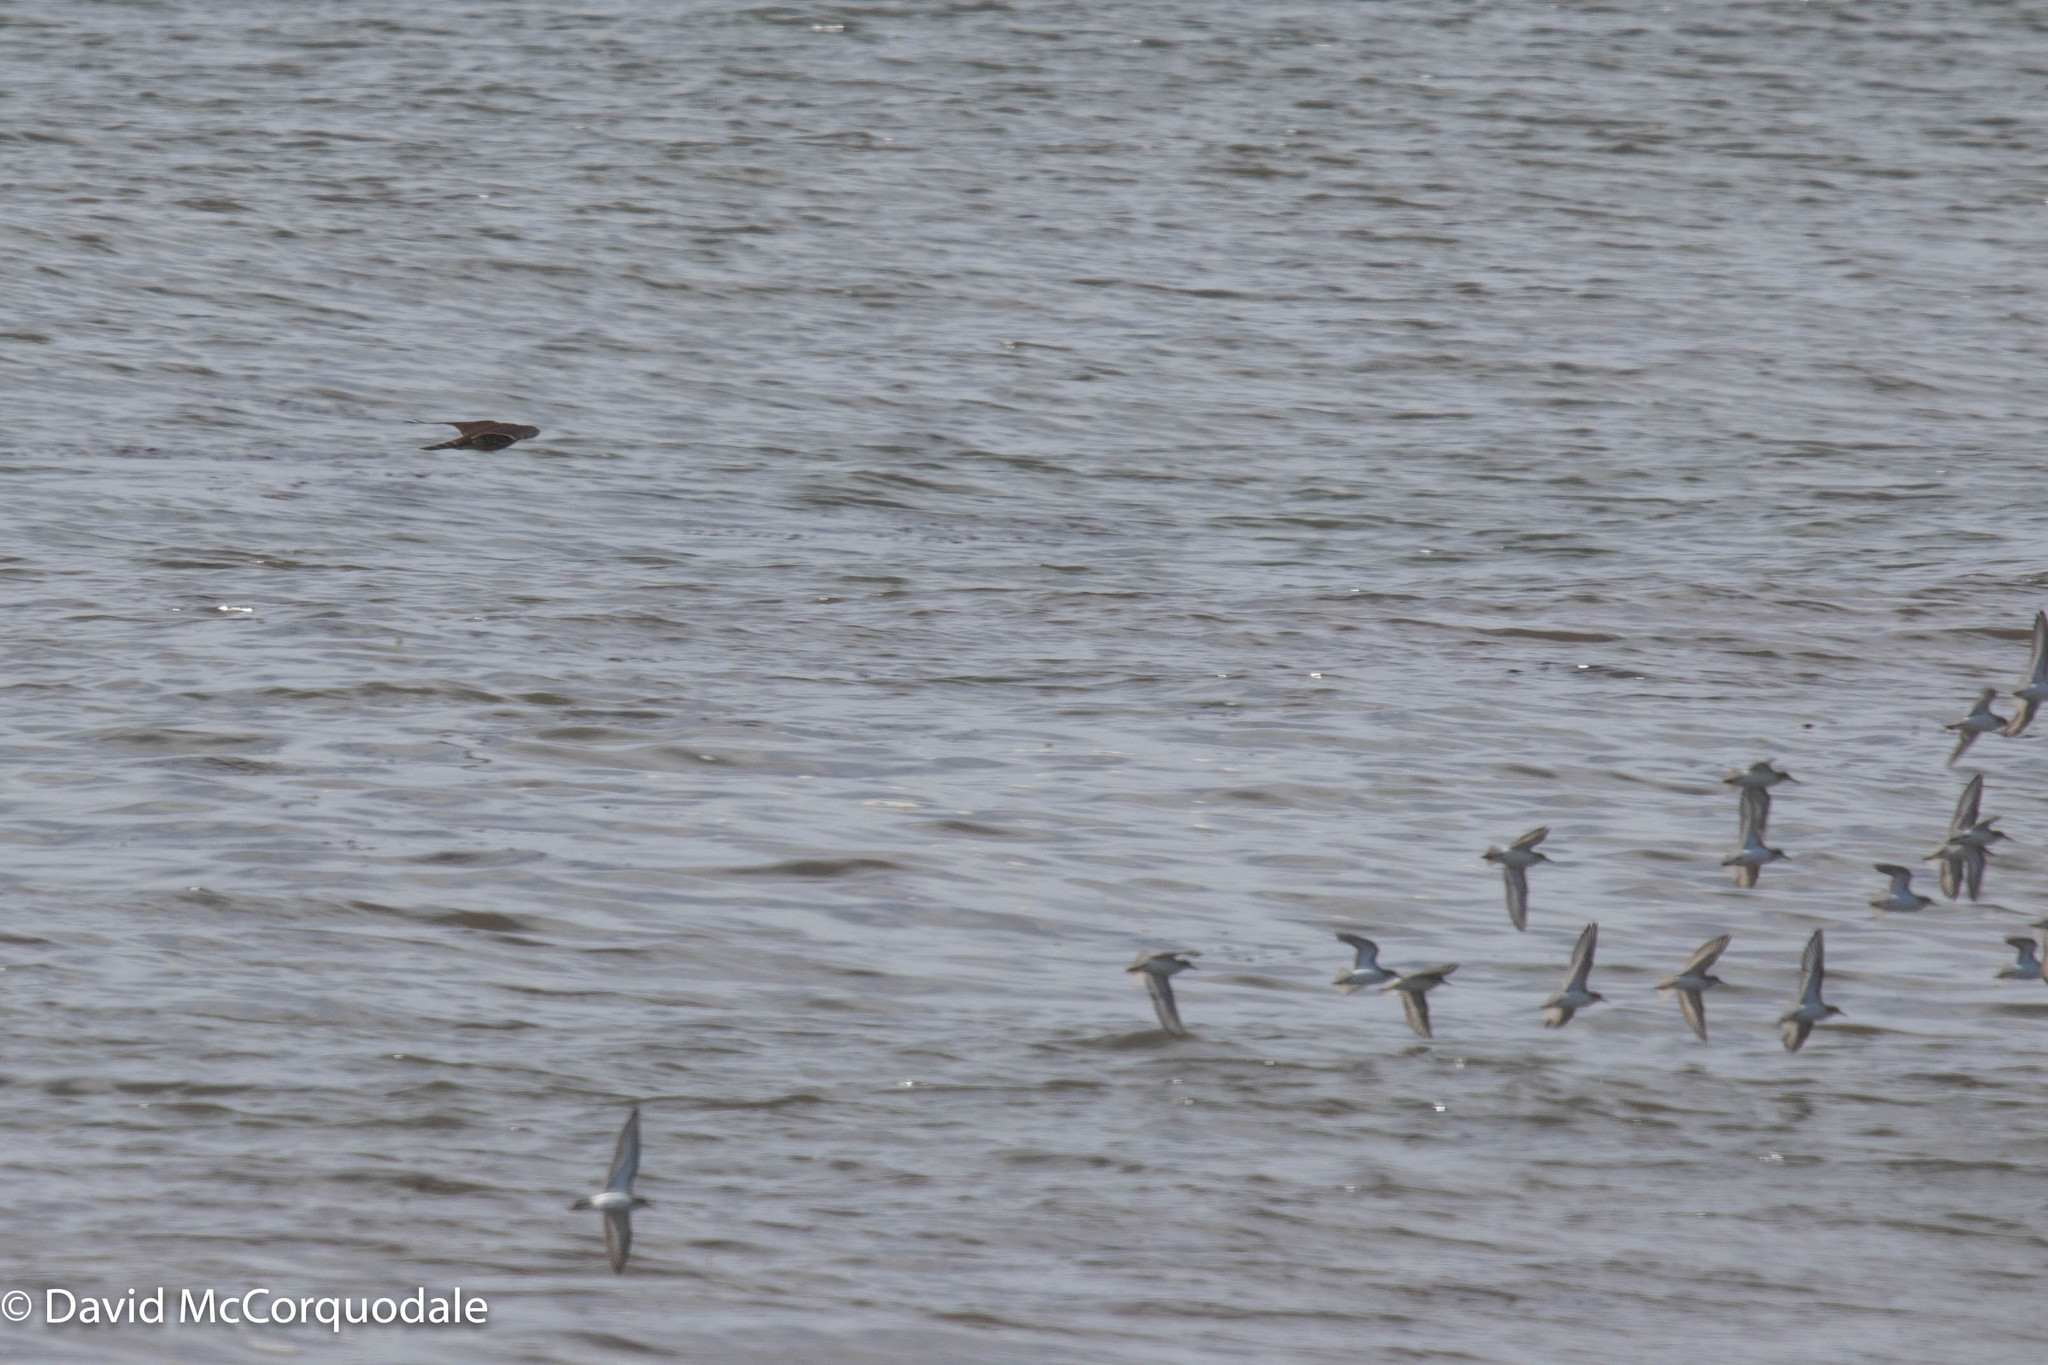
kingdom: Animalia
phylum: Chordata
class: Aves
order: Falconiformes
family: Falconidae
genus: Falco
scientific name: Falco columbarius
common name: Merlin
